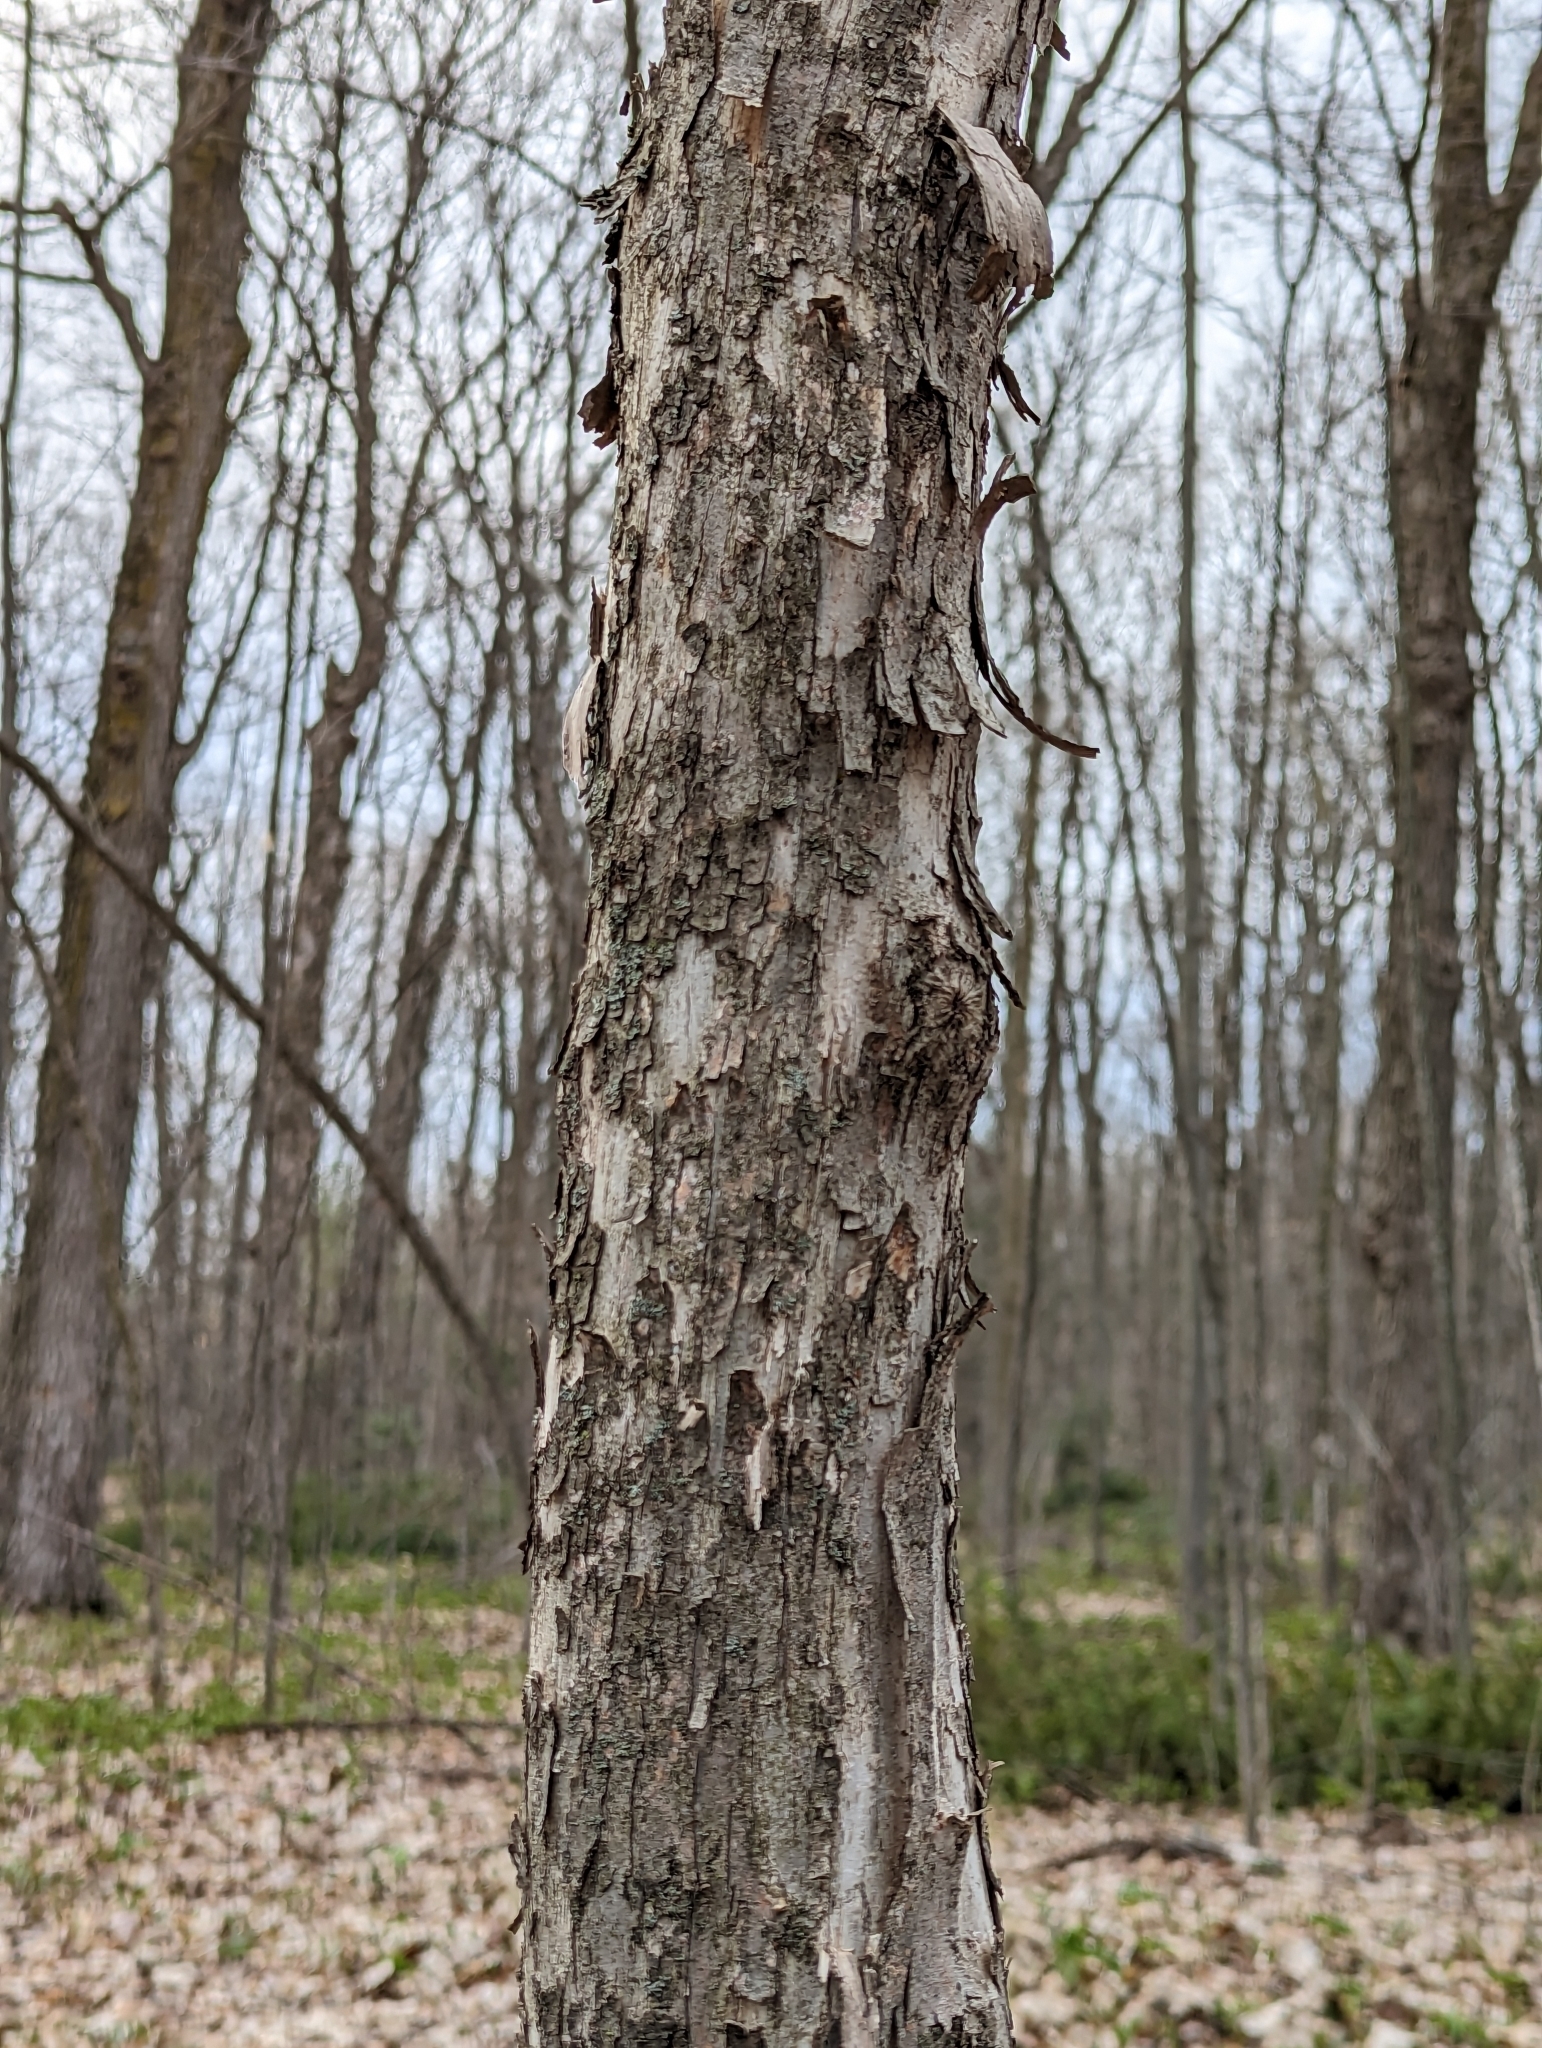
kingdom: Plantae
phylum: Tracheophyta
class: Magnoliopsida
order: Fagales
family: Betulaceae
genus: Ostrya
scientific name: Ostrya virginiana
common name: Ironwood
